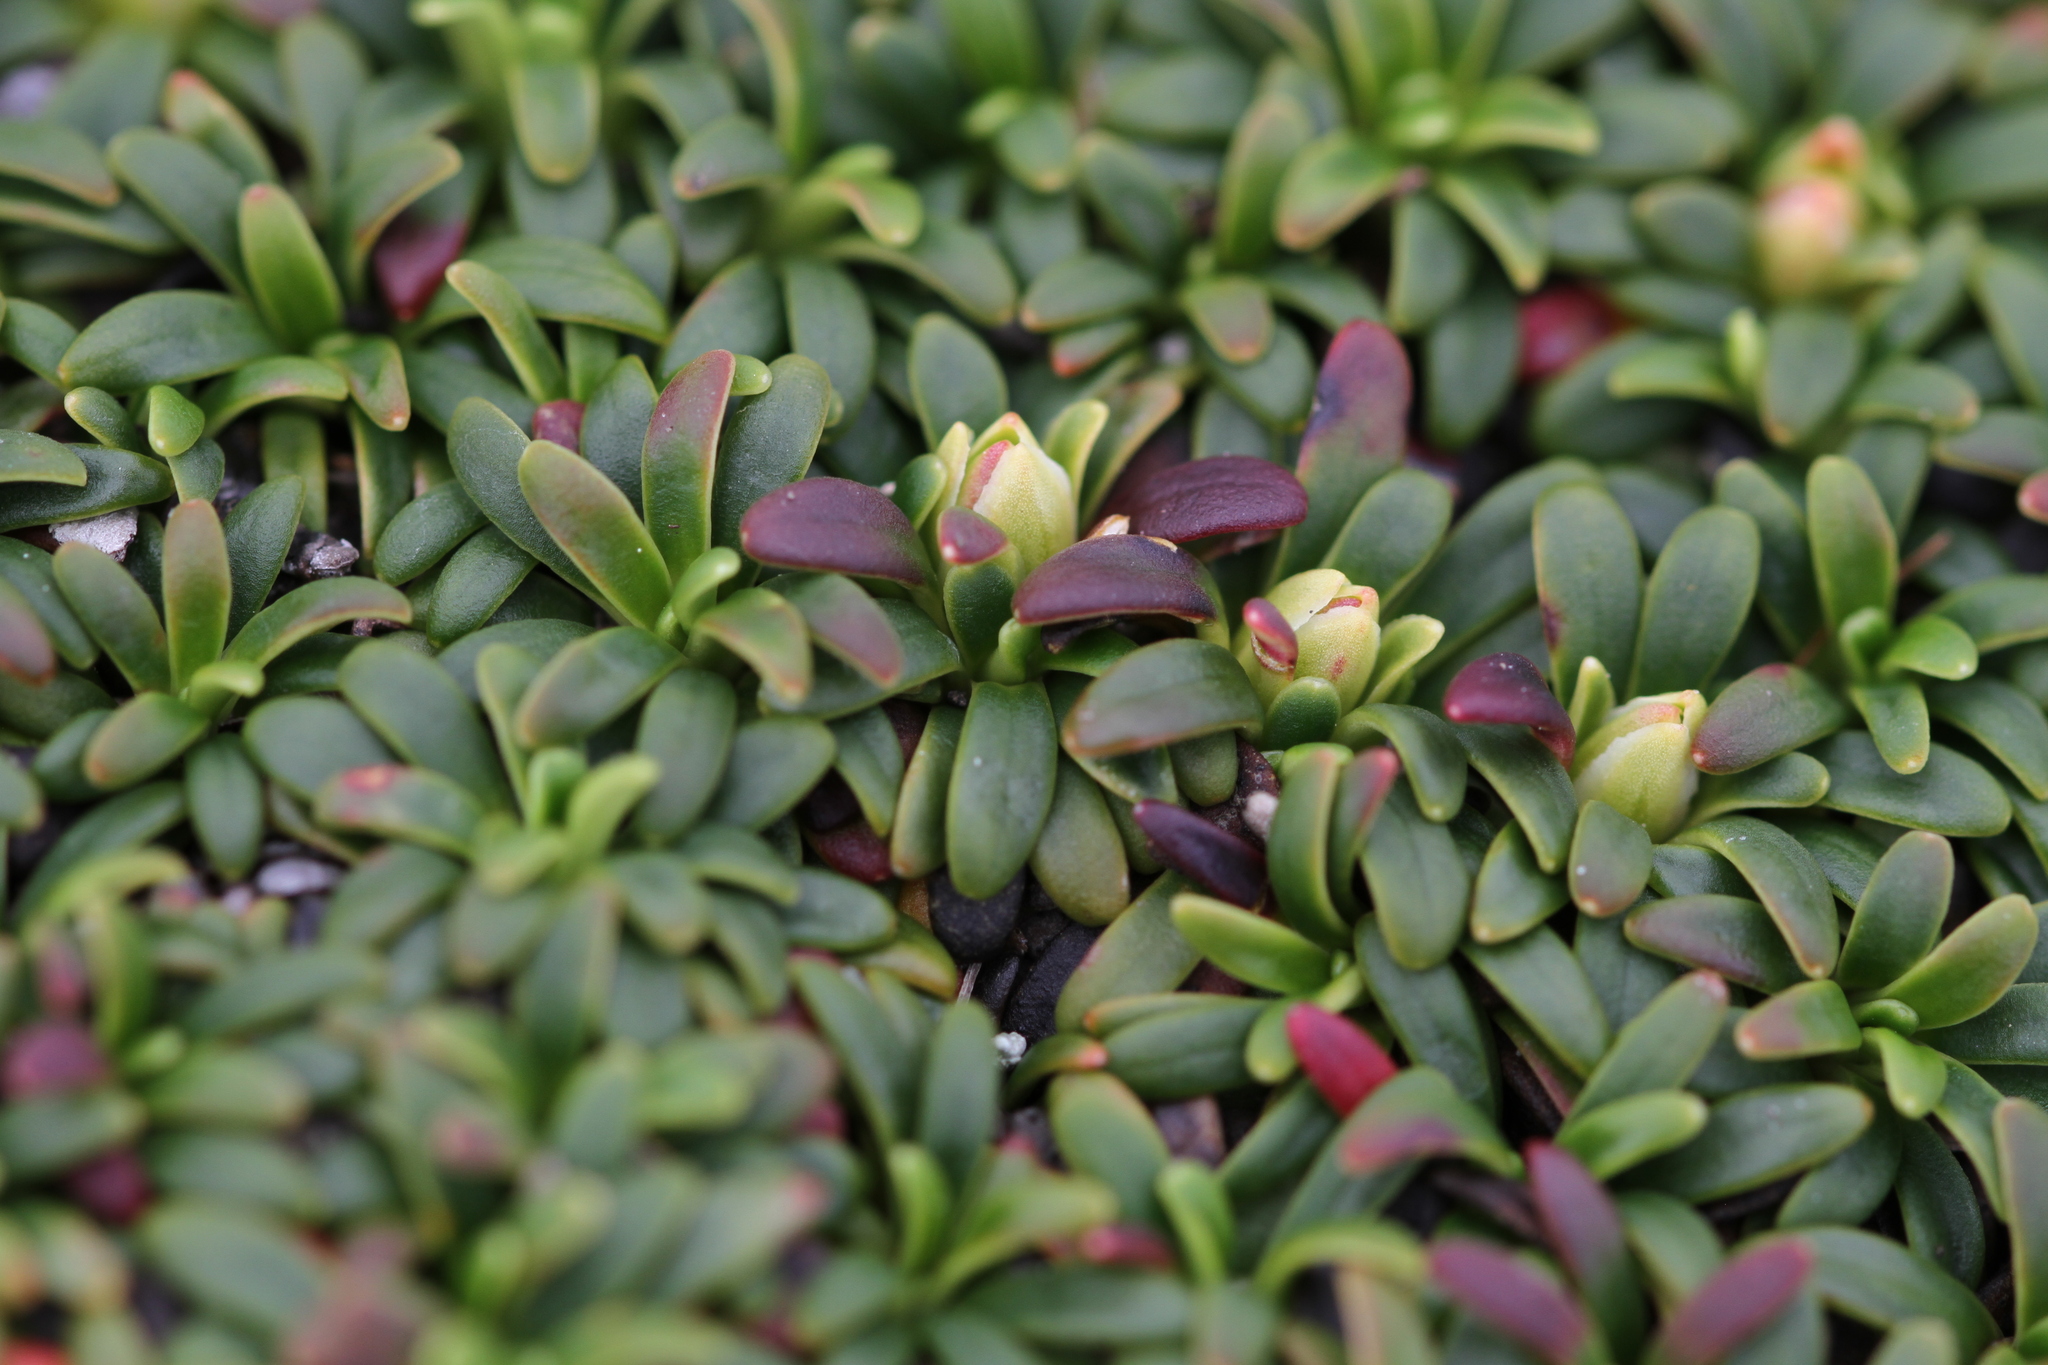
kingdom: Plantae
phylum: Tracheophyta
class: Magnoliopsida
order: Ericales
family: Diapensiaceae
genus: Diapensia
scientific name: Diapensia lapponica
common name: Diapensia
